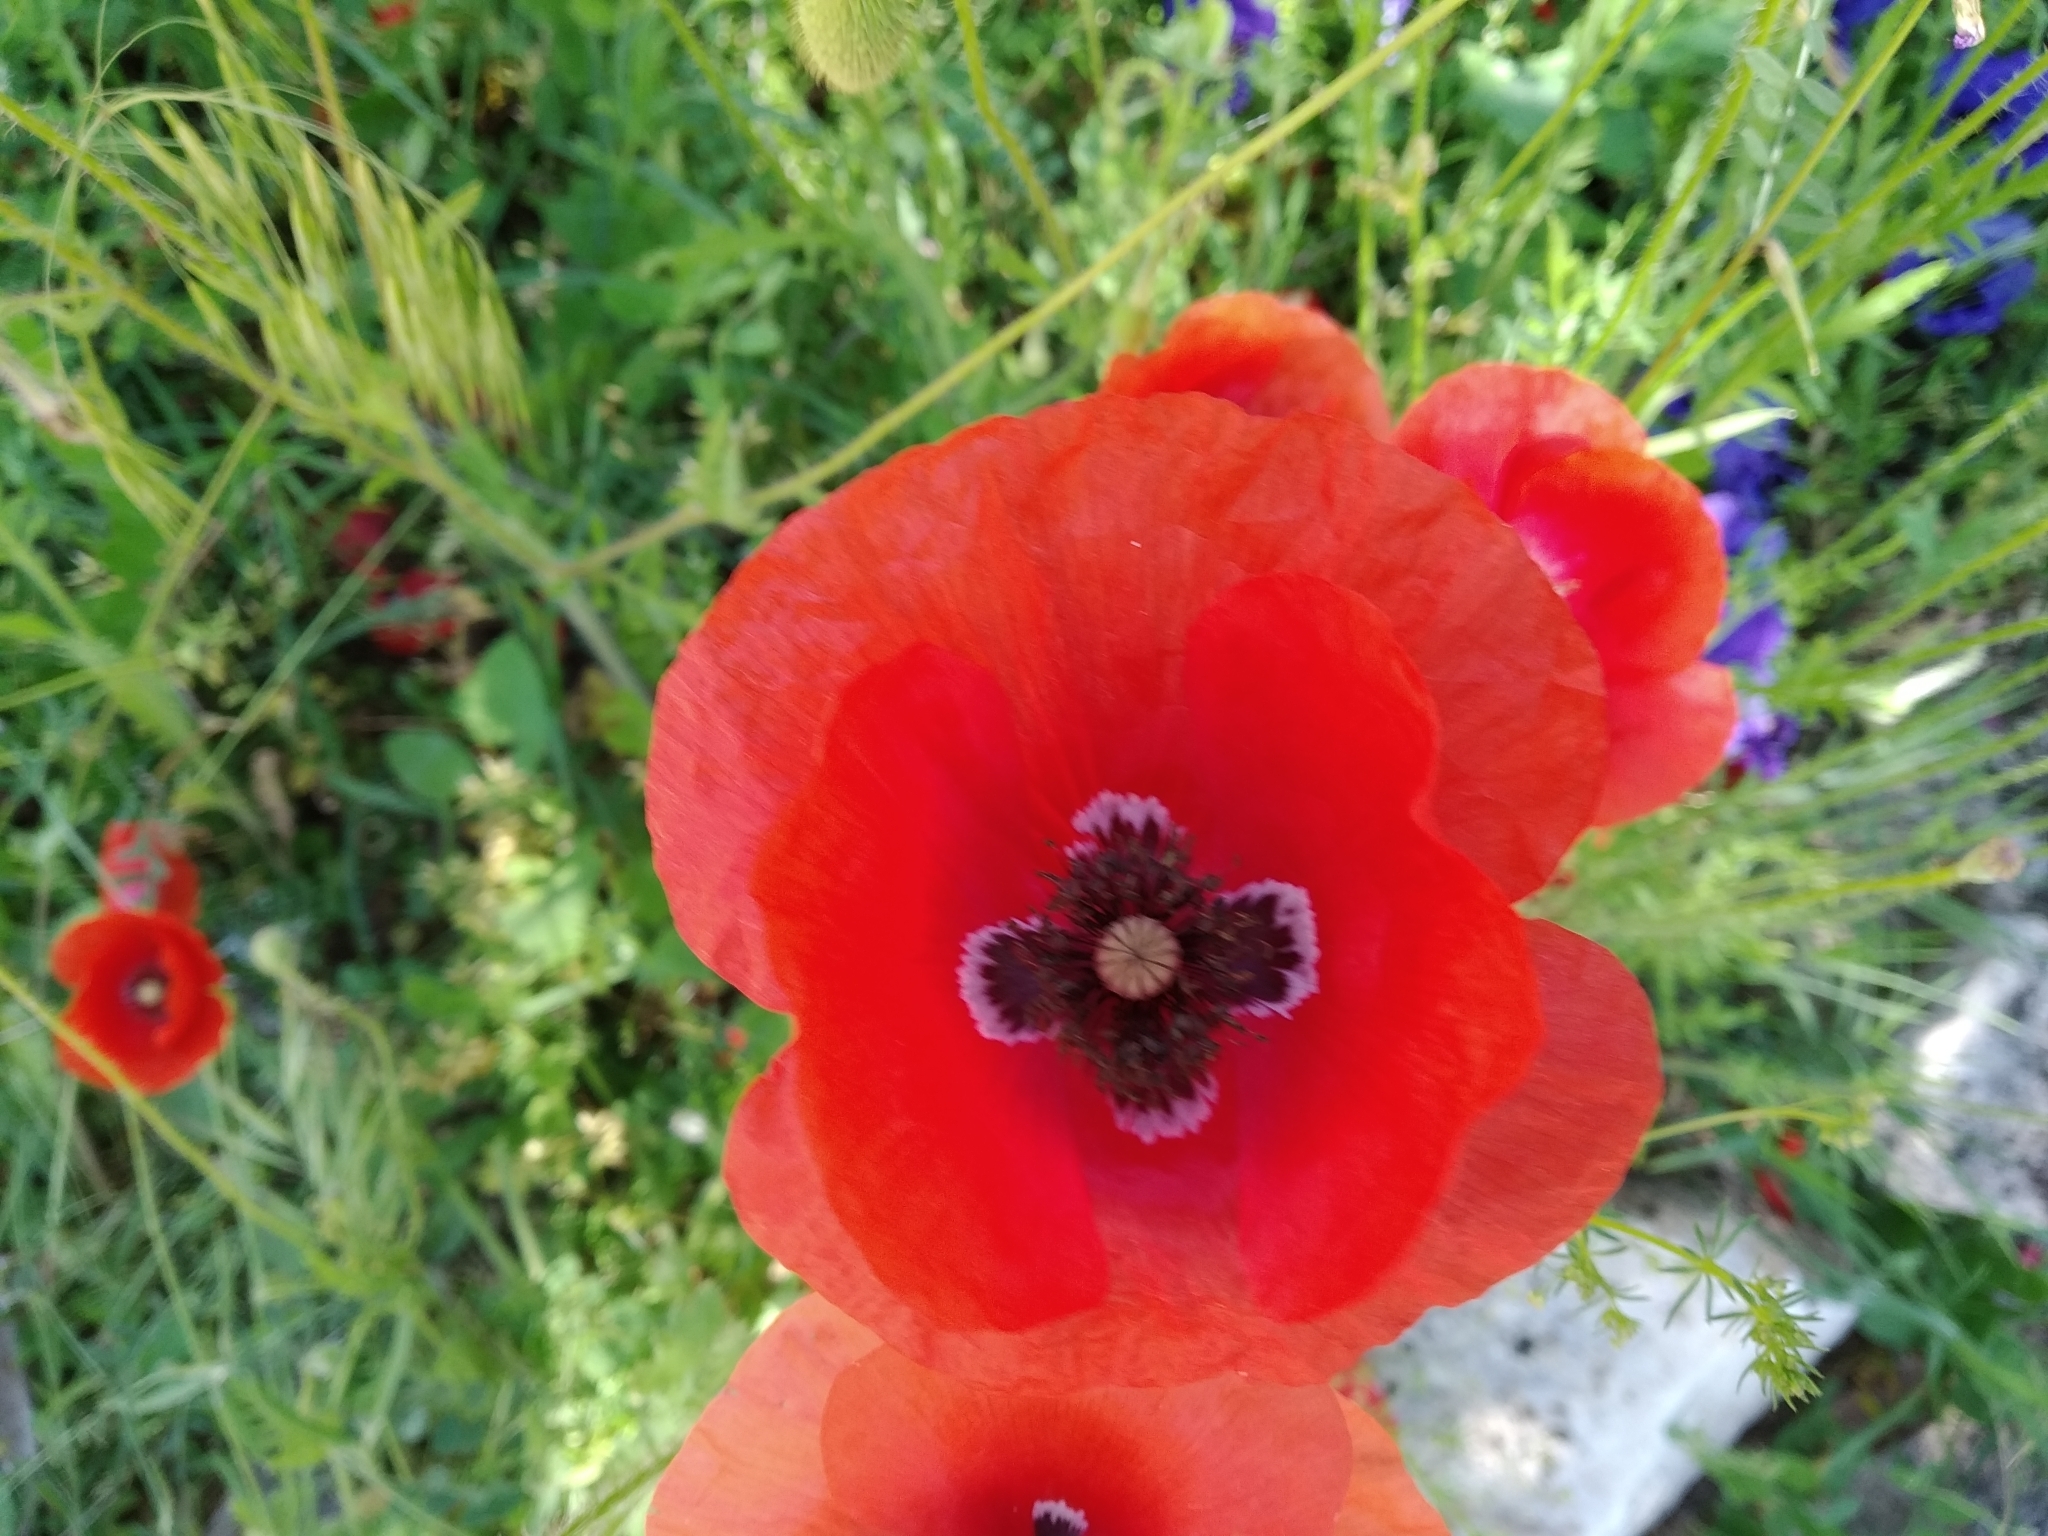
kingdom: Plantae
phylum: Tracheophyta
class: Magnoliopsida
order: Ranunculales
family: Papaveraceae
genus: Papaver
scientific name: Papaver rhoeas
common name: Corn poppy
